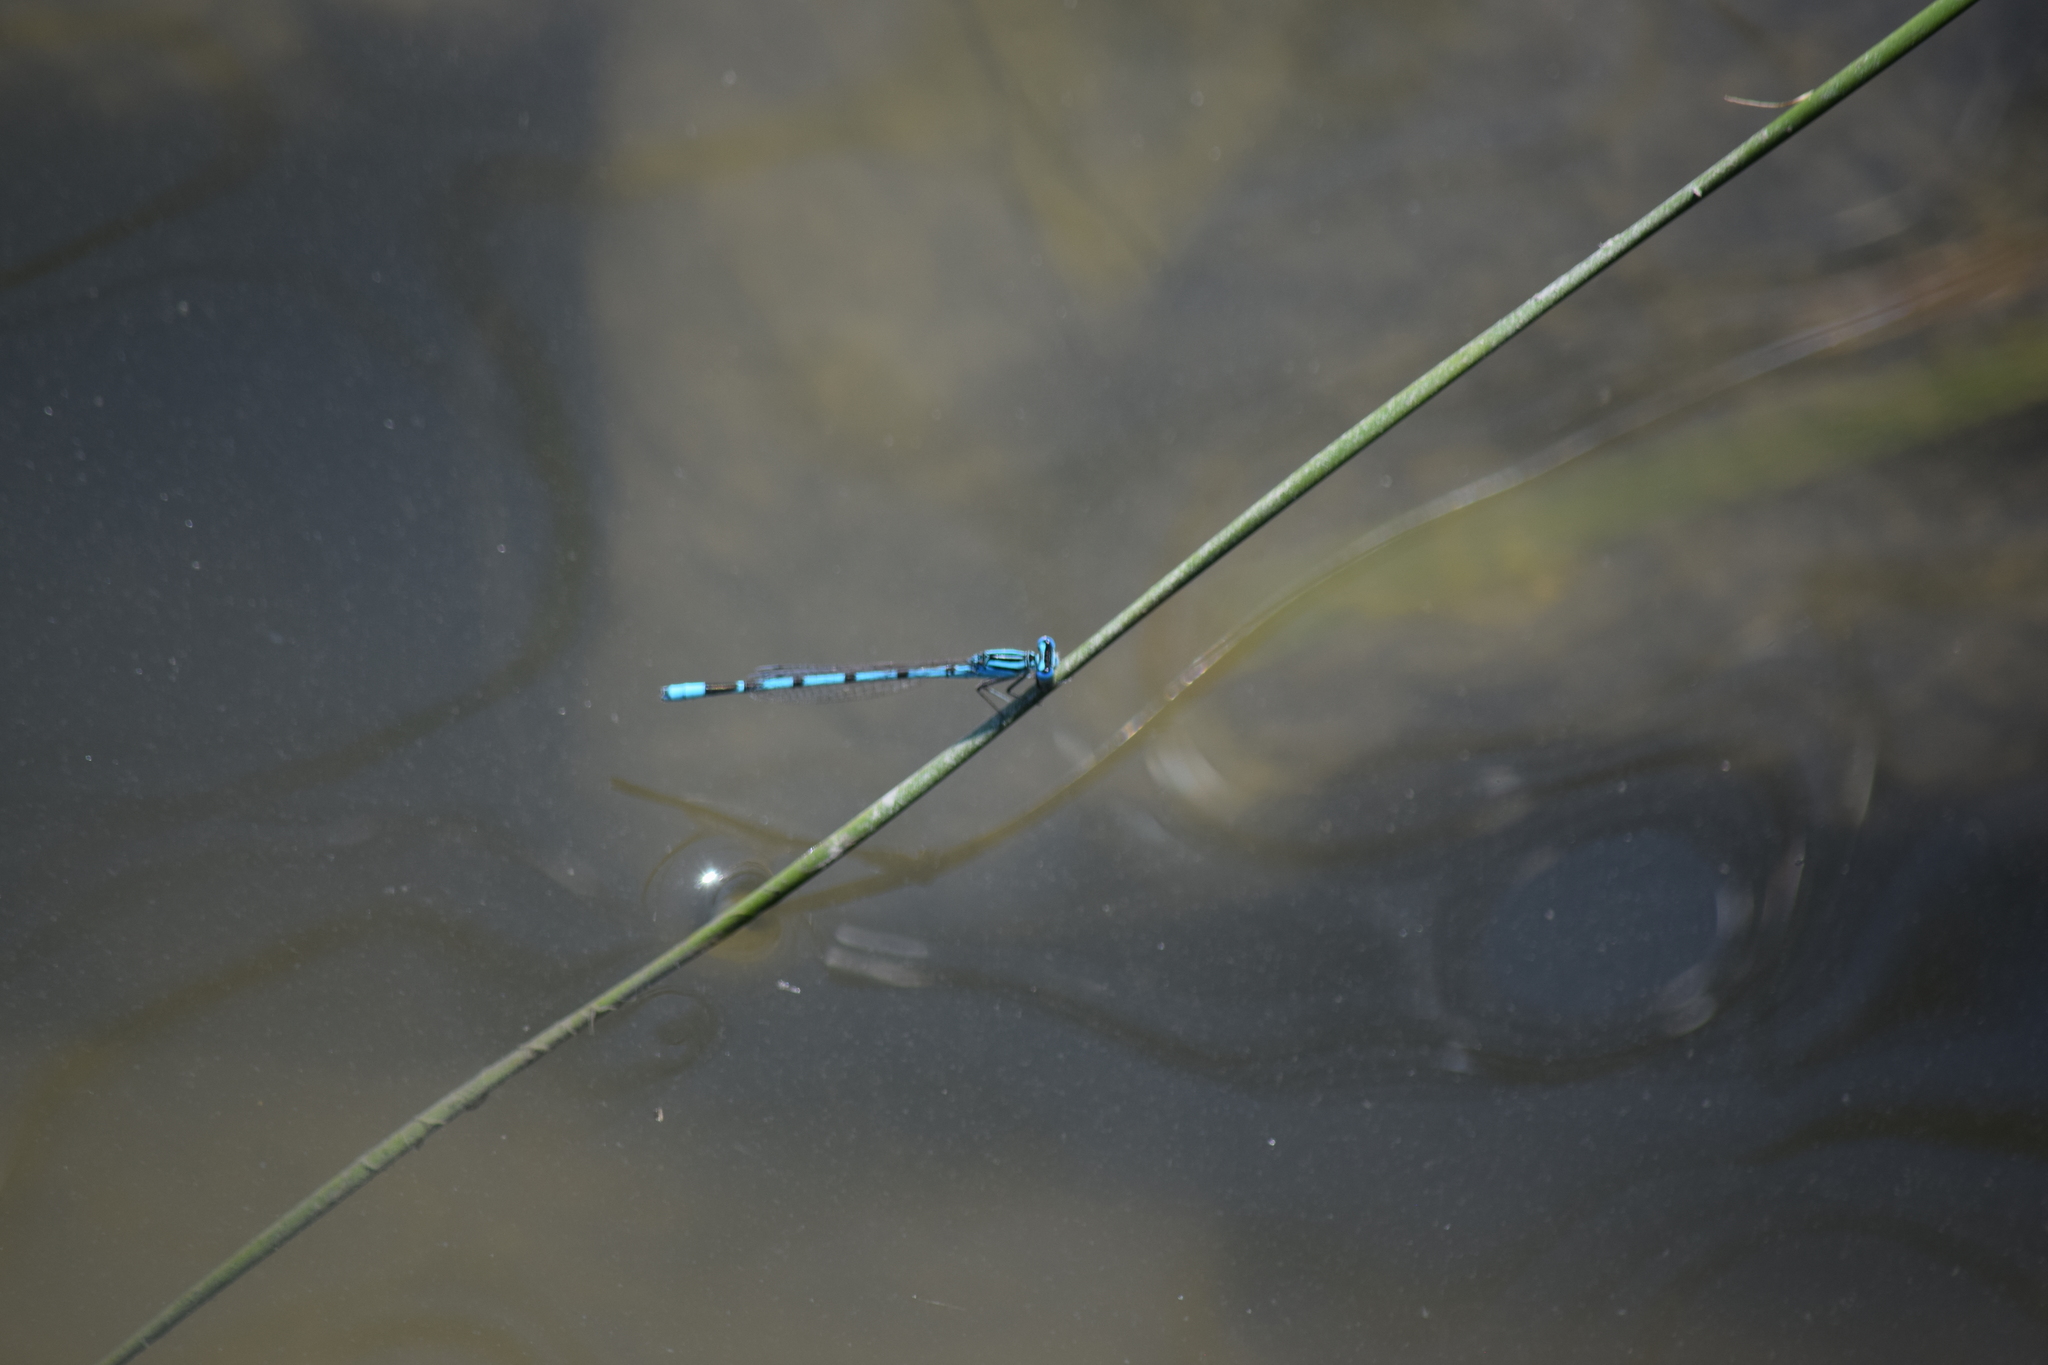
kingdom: Animalia
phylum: Arthropoda
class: Insecta
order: Odonata
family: Coenagrionidae
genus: Enallagma
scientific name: Enallagma durum
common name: Big bluet
